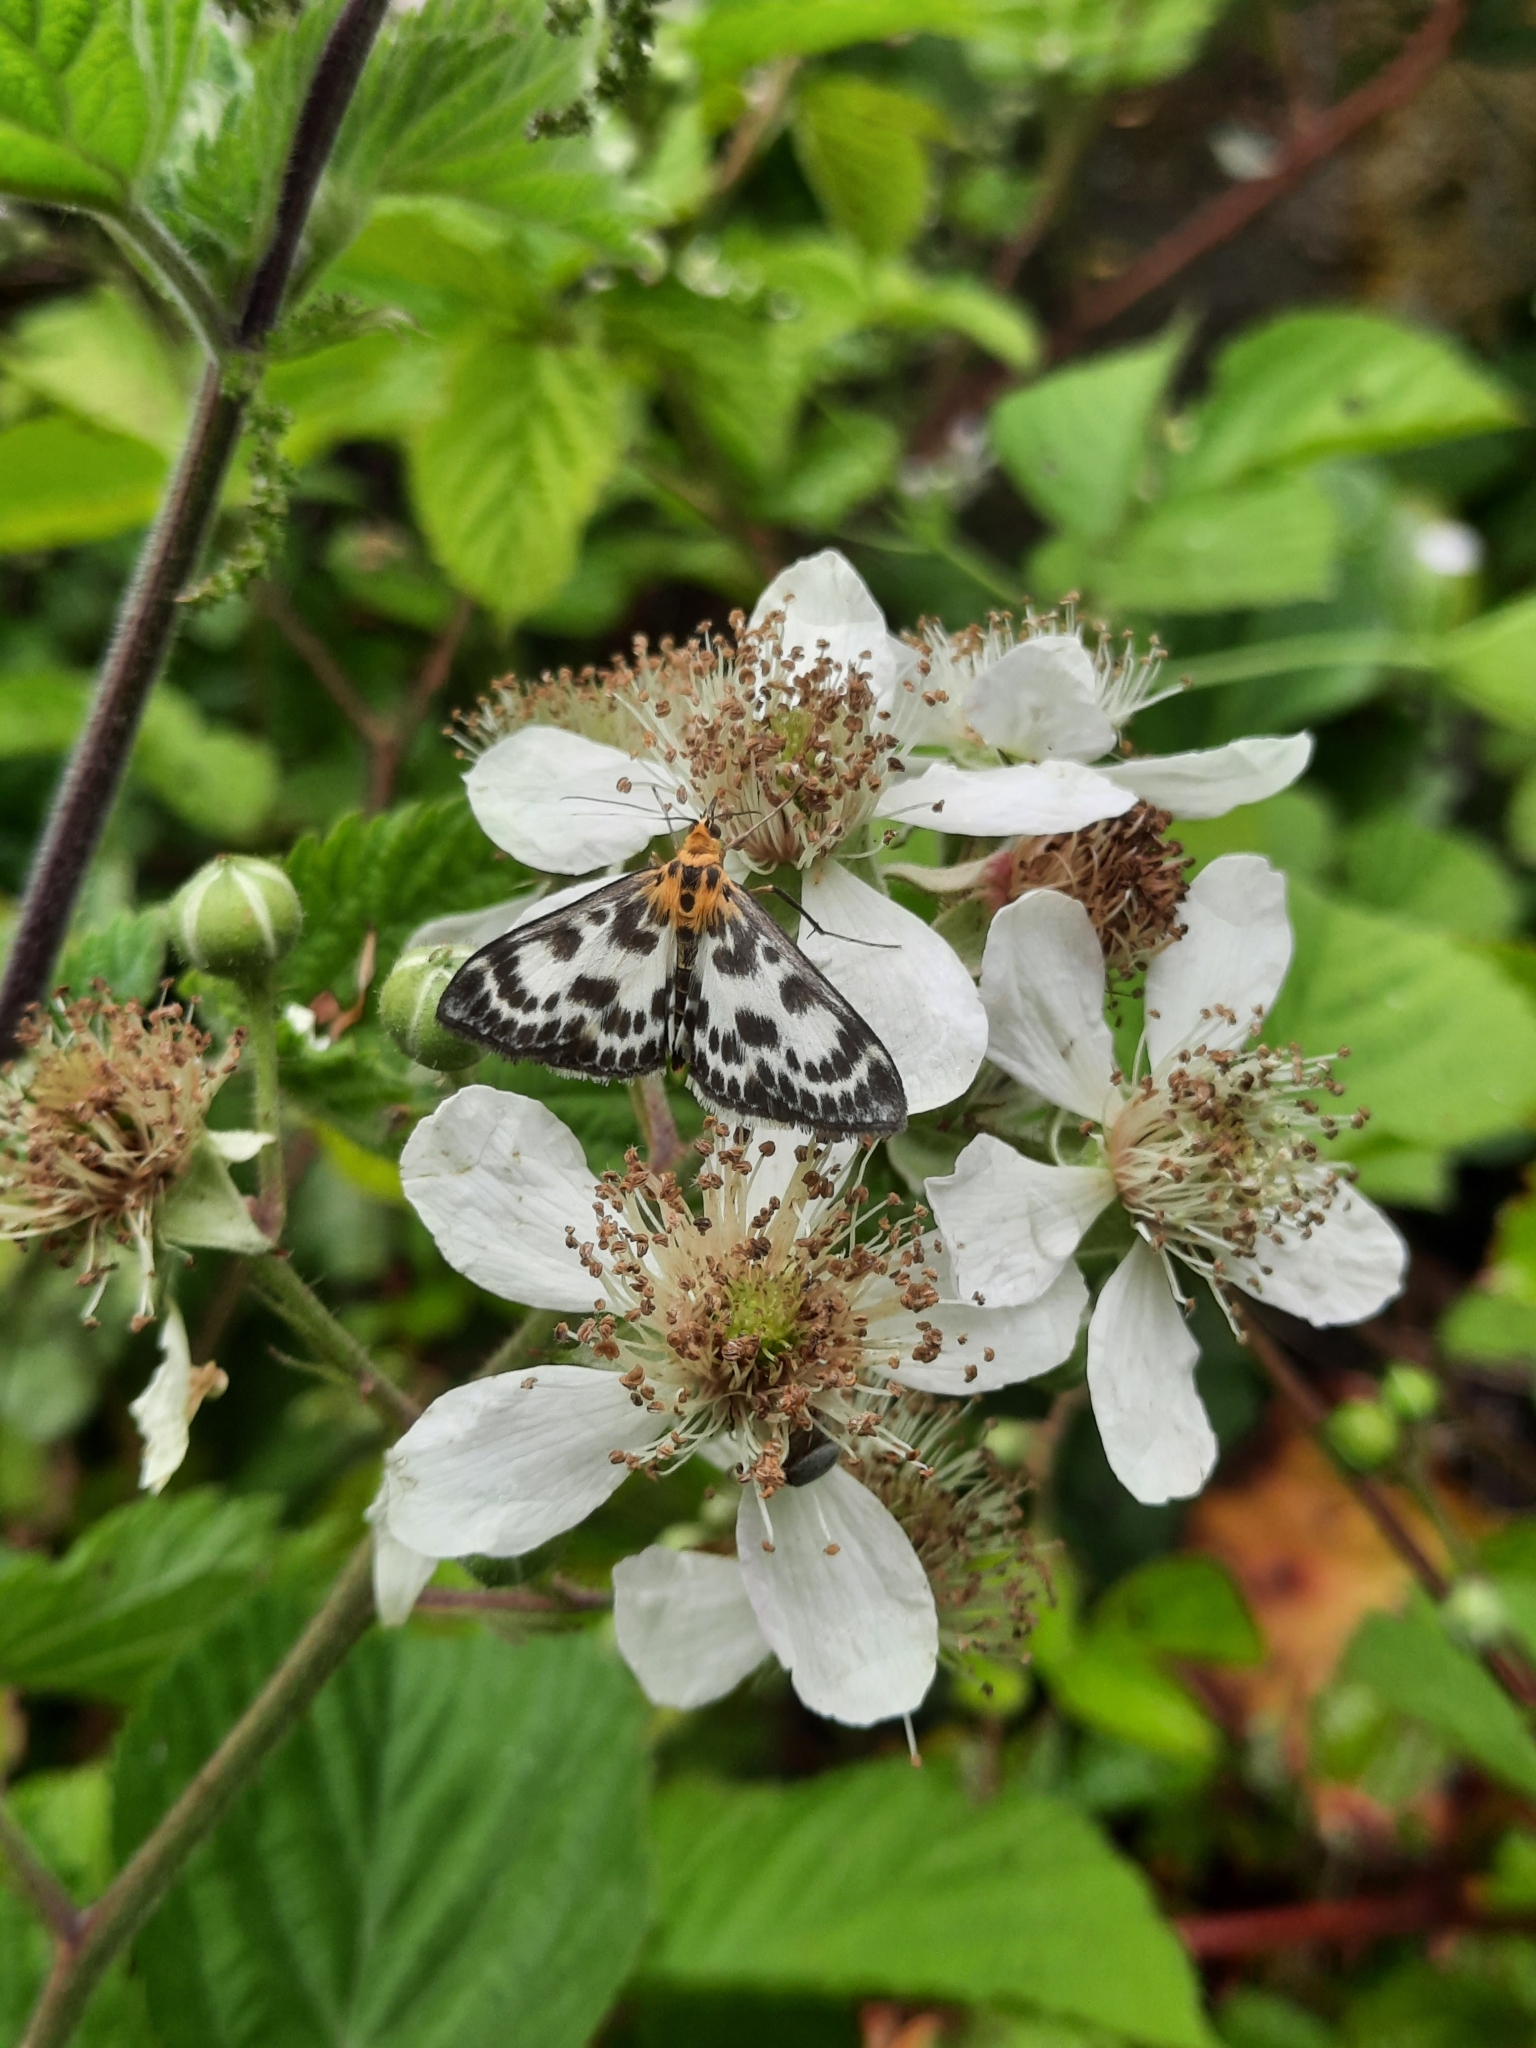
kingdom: Animalia
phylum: Arthropoda
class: Insecta
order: Lepidoptera
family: Crambidae
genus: Anania
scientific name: Anania hortulata
